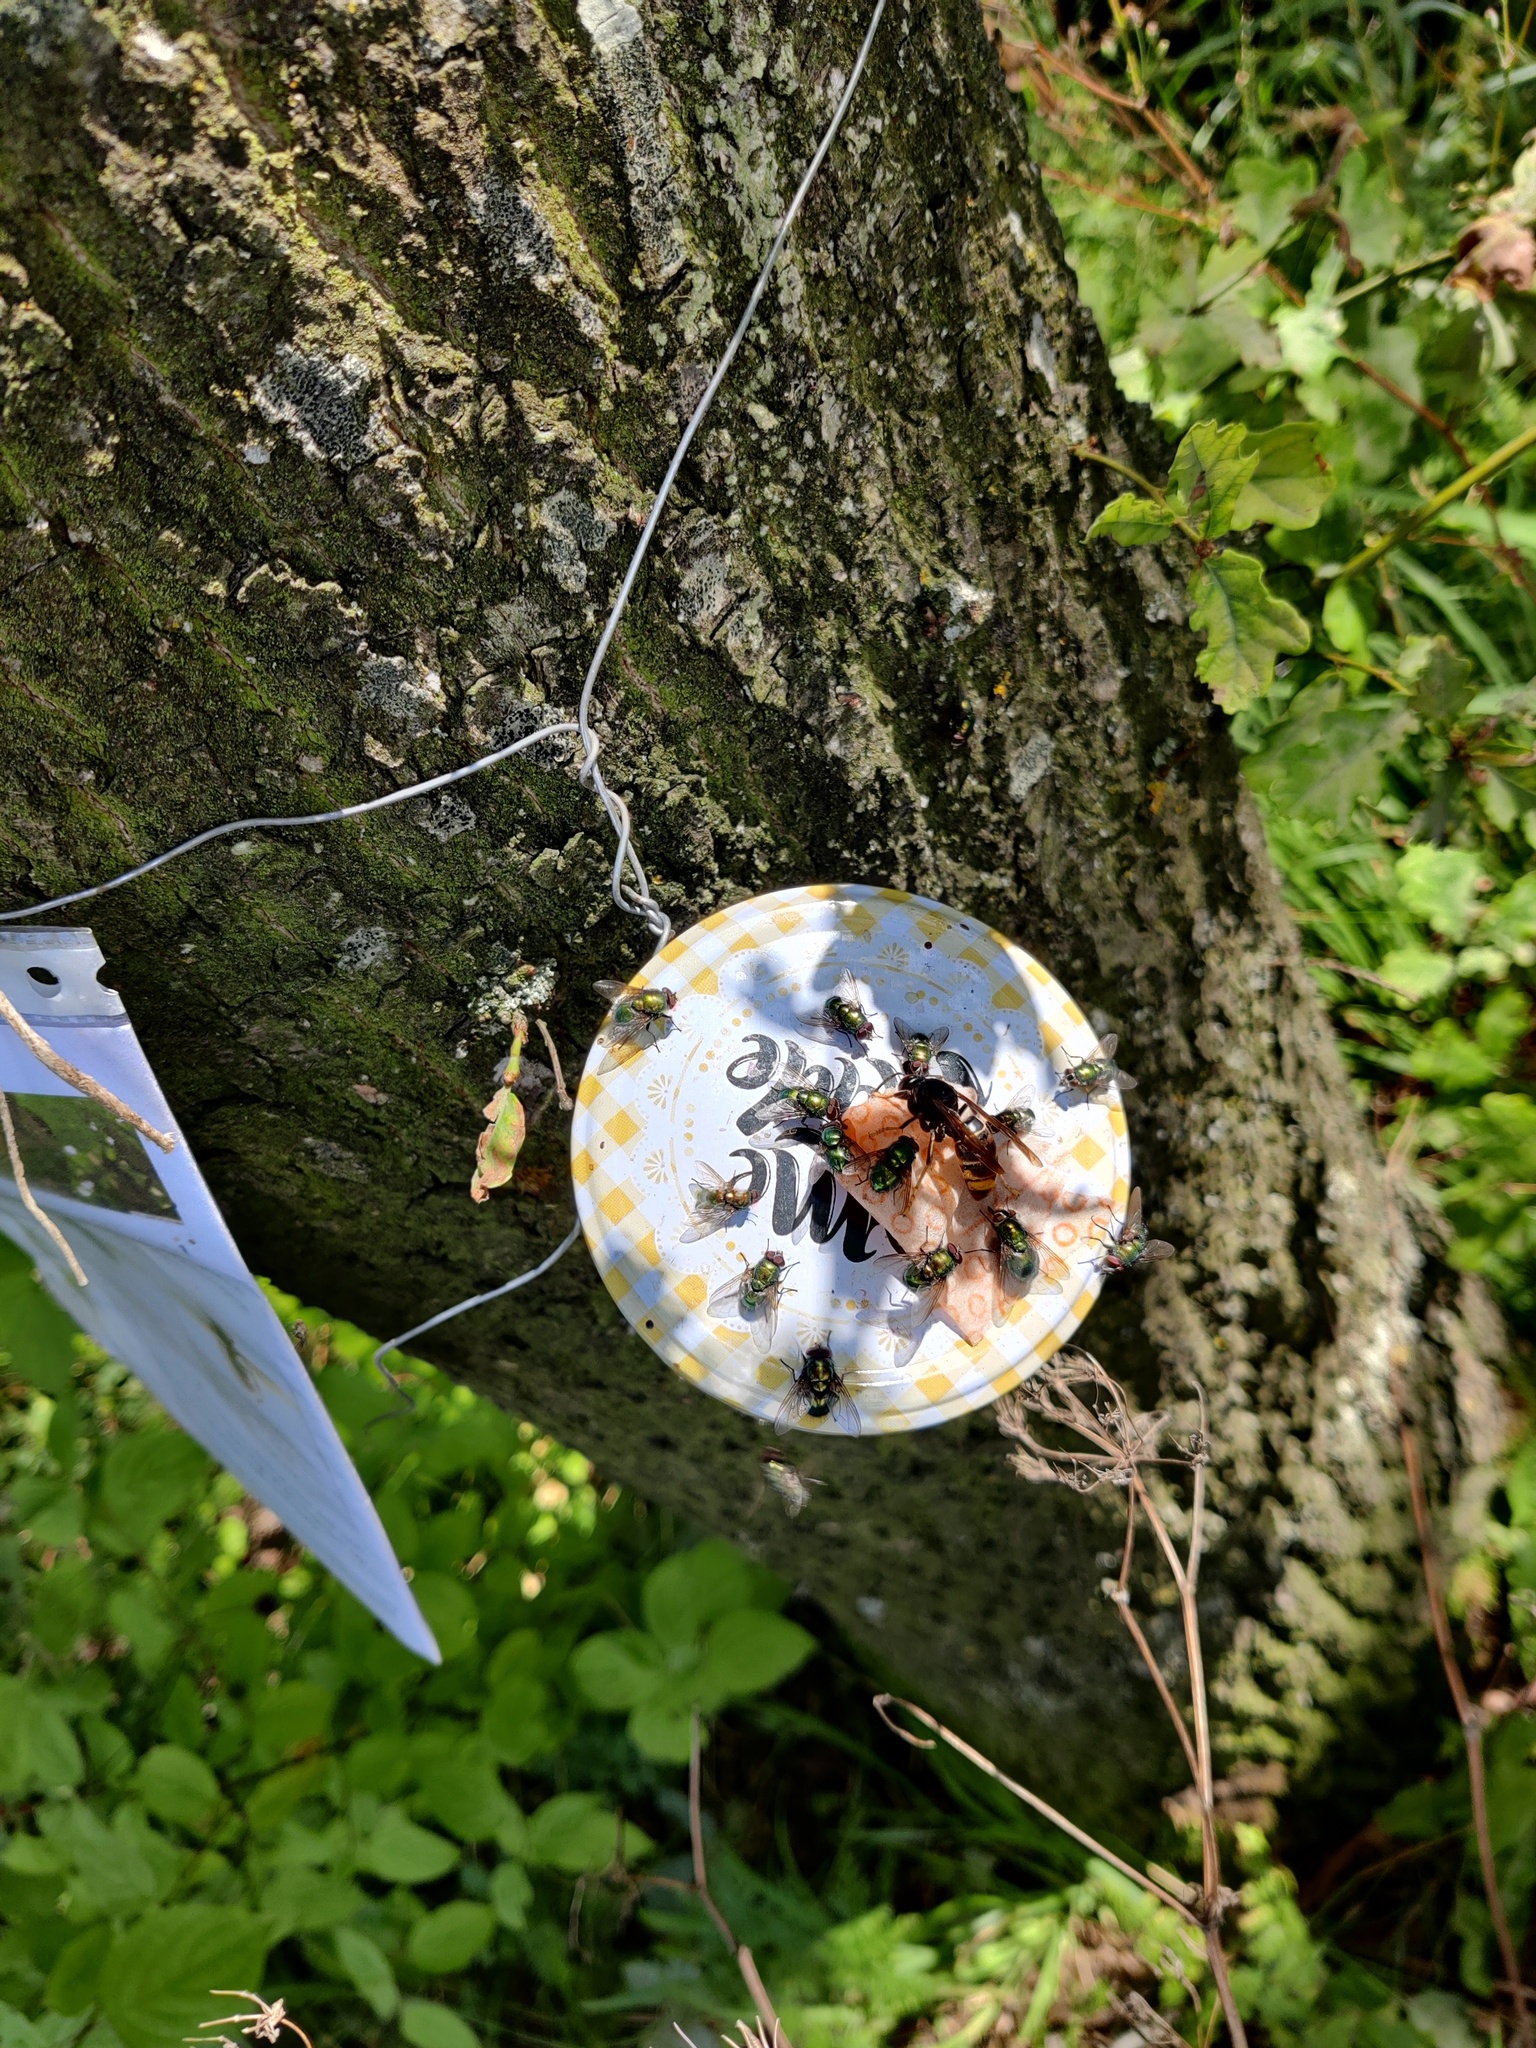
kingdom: Animalia
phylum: Arthropoda
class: Insecta
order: Hymenoptera
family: Vespidae
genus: Vespa
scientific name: Vespa velutina
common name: Asian hornet
